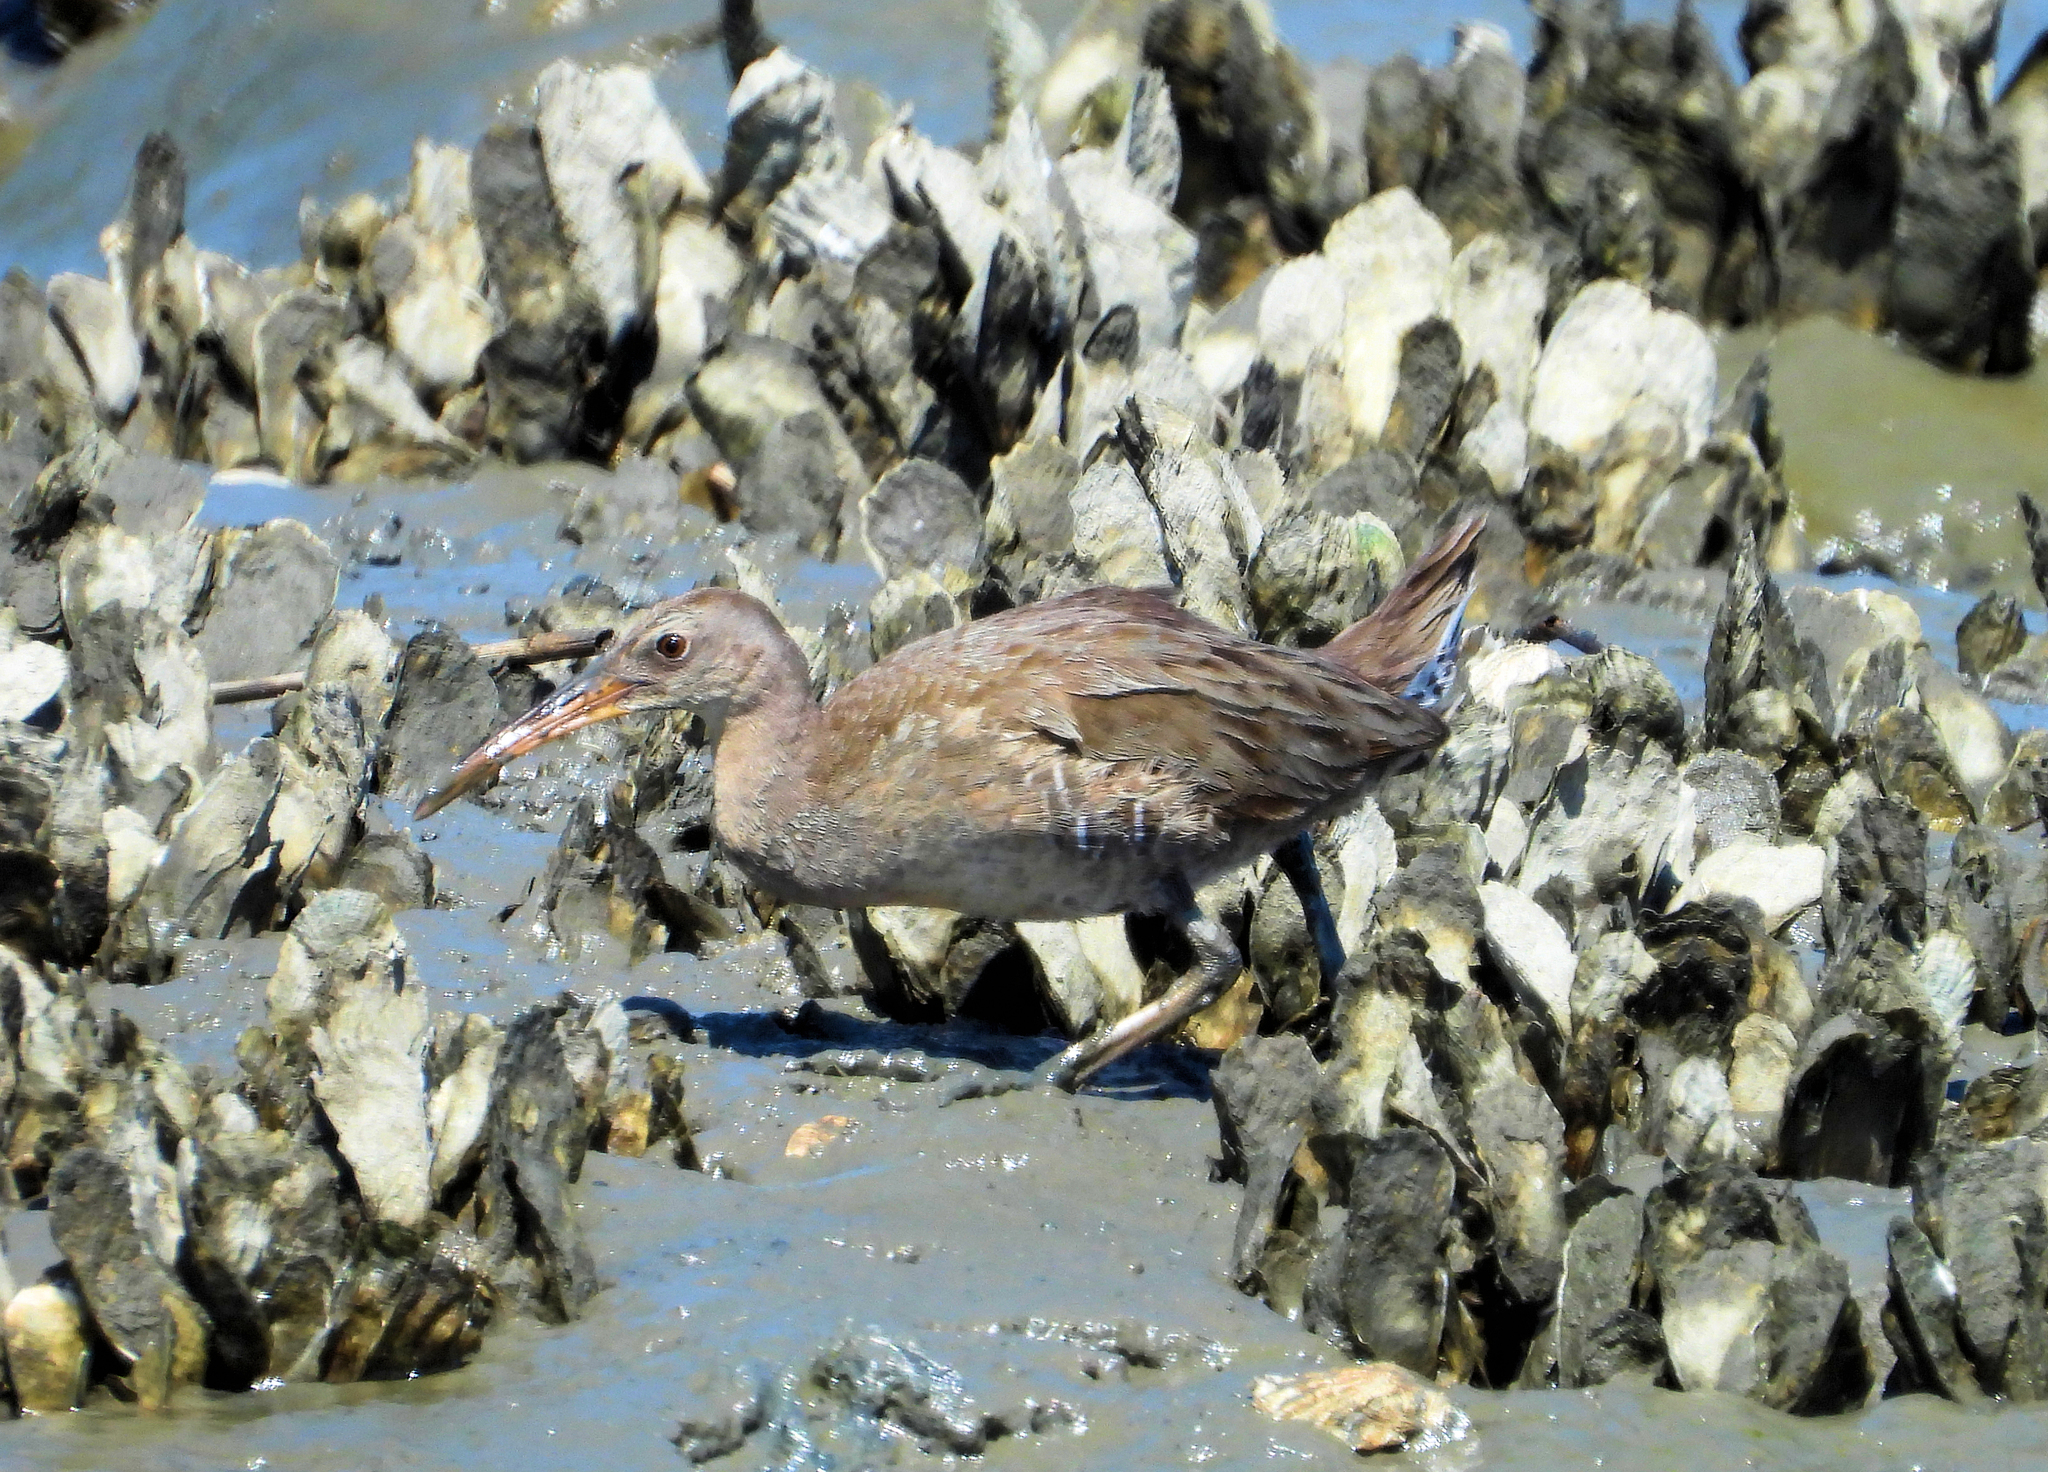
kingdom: Animalia
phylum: Chordata
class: Aves
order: Gruiformes
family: Rallidae
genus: Rallus
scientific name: Rallus crepitans
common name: Clapper rail
